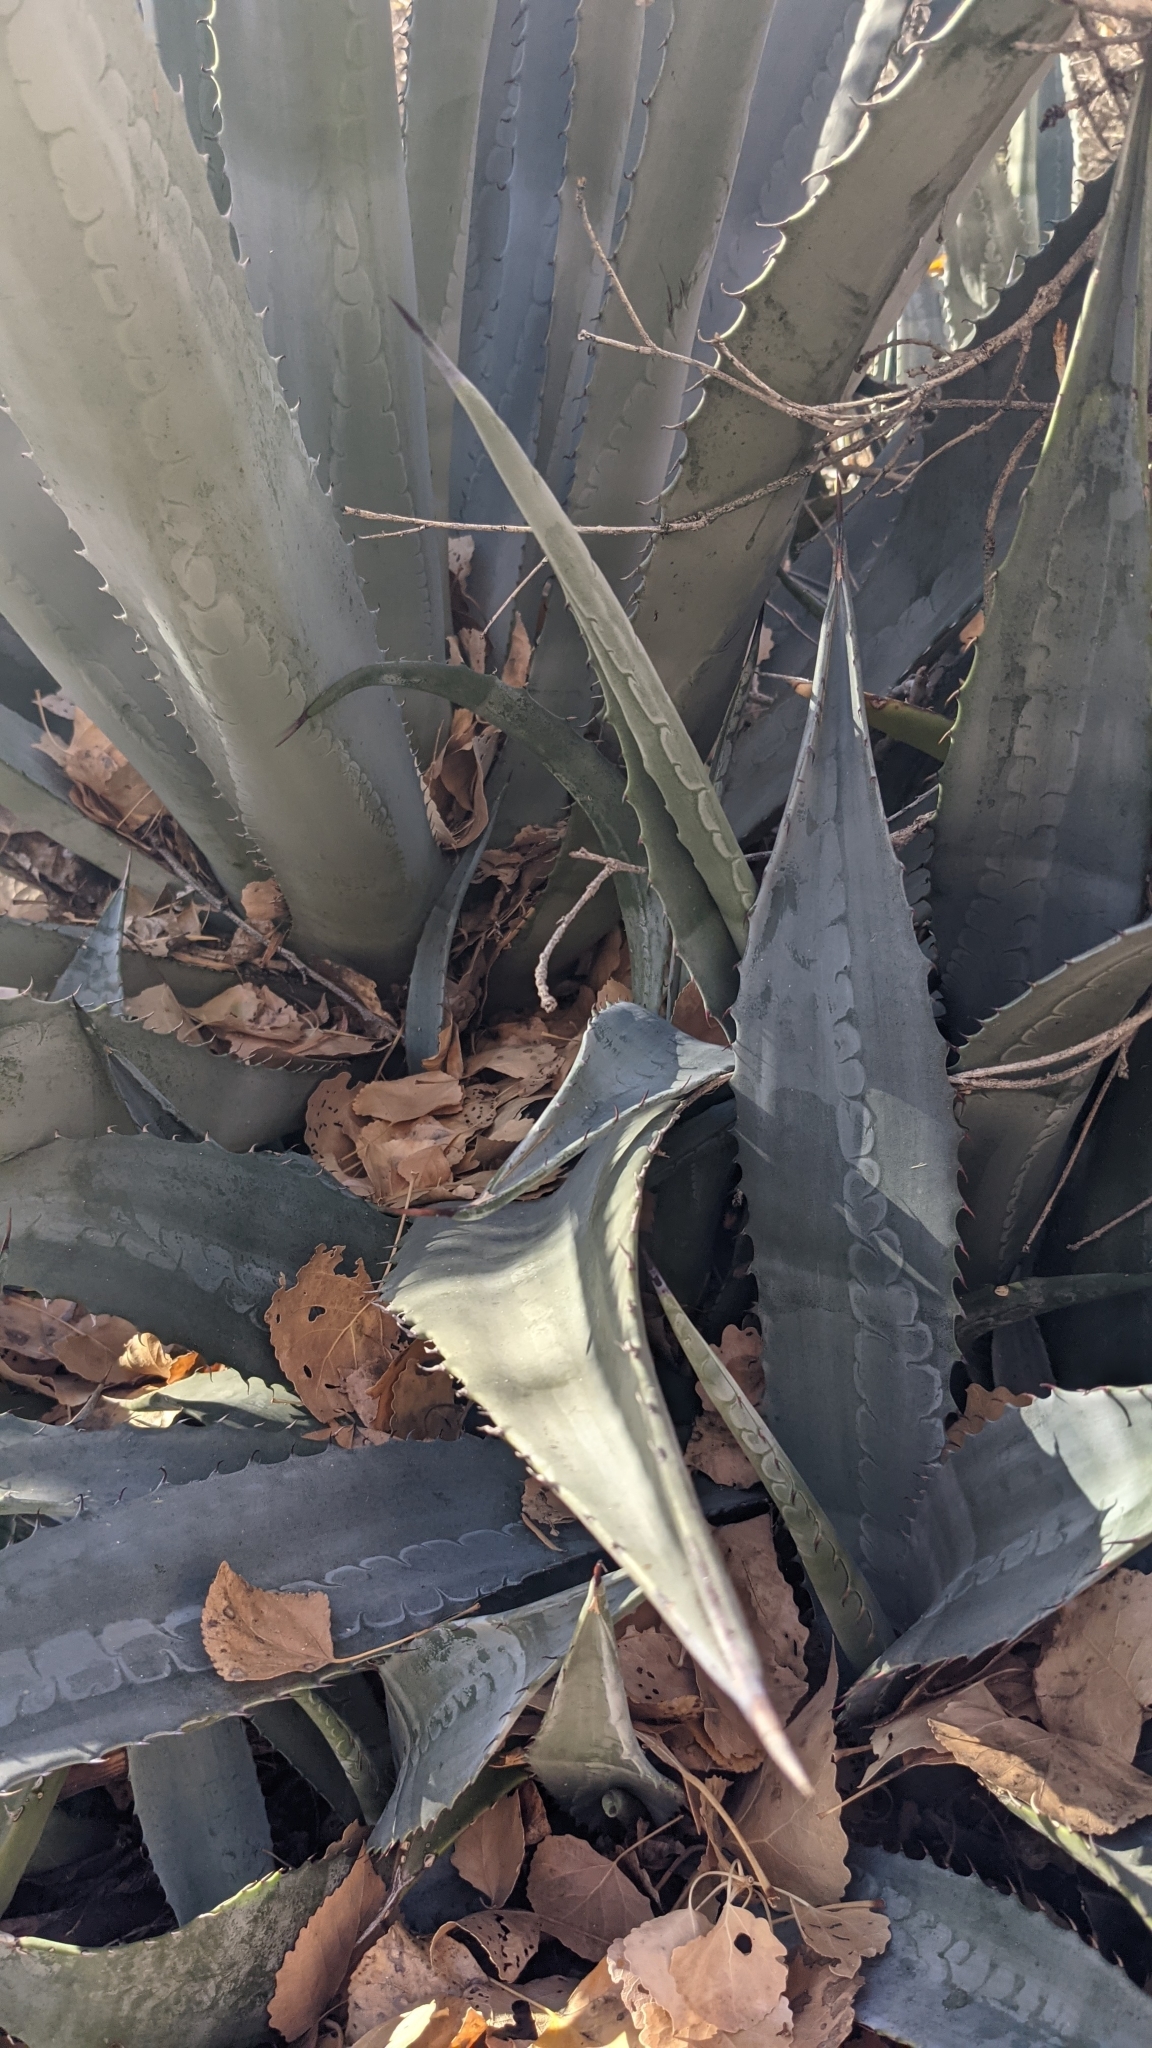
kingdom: Plantae
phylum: Tracheophyta
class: Liliopsida
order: Asparagales
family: Asparagaceae
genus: Agave
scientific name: Agave phillipsiana
